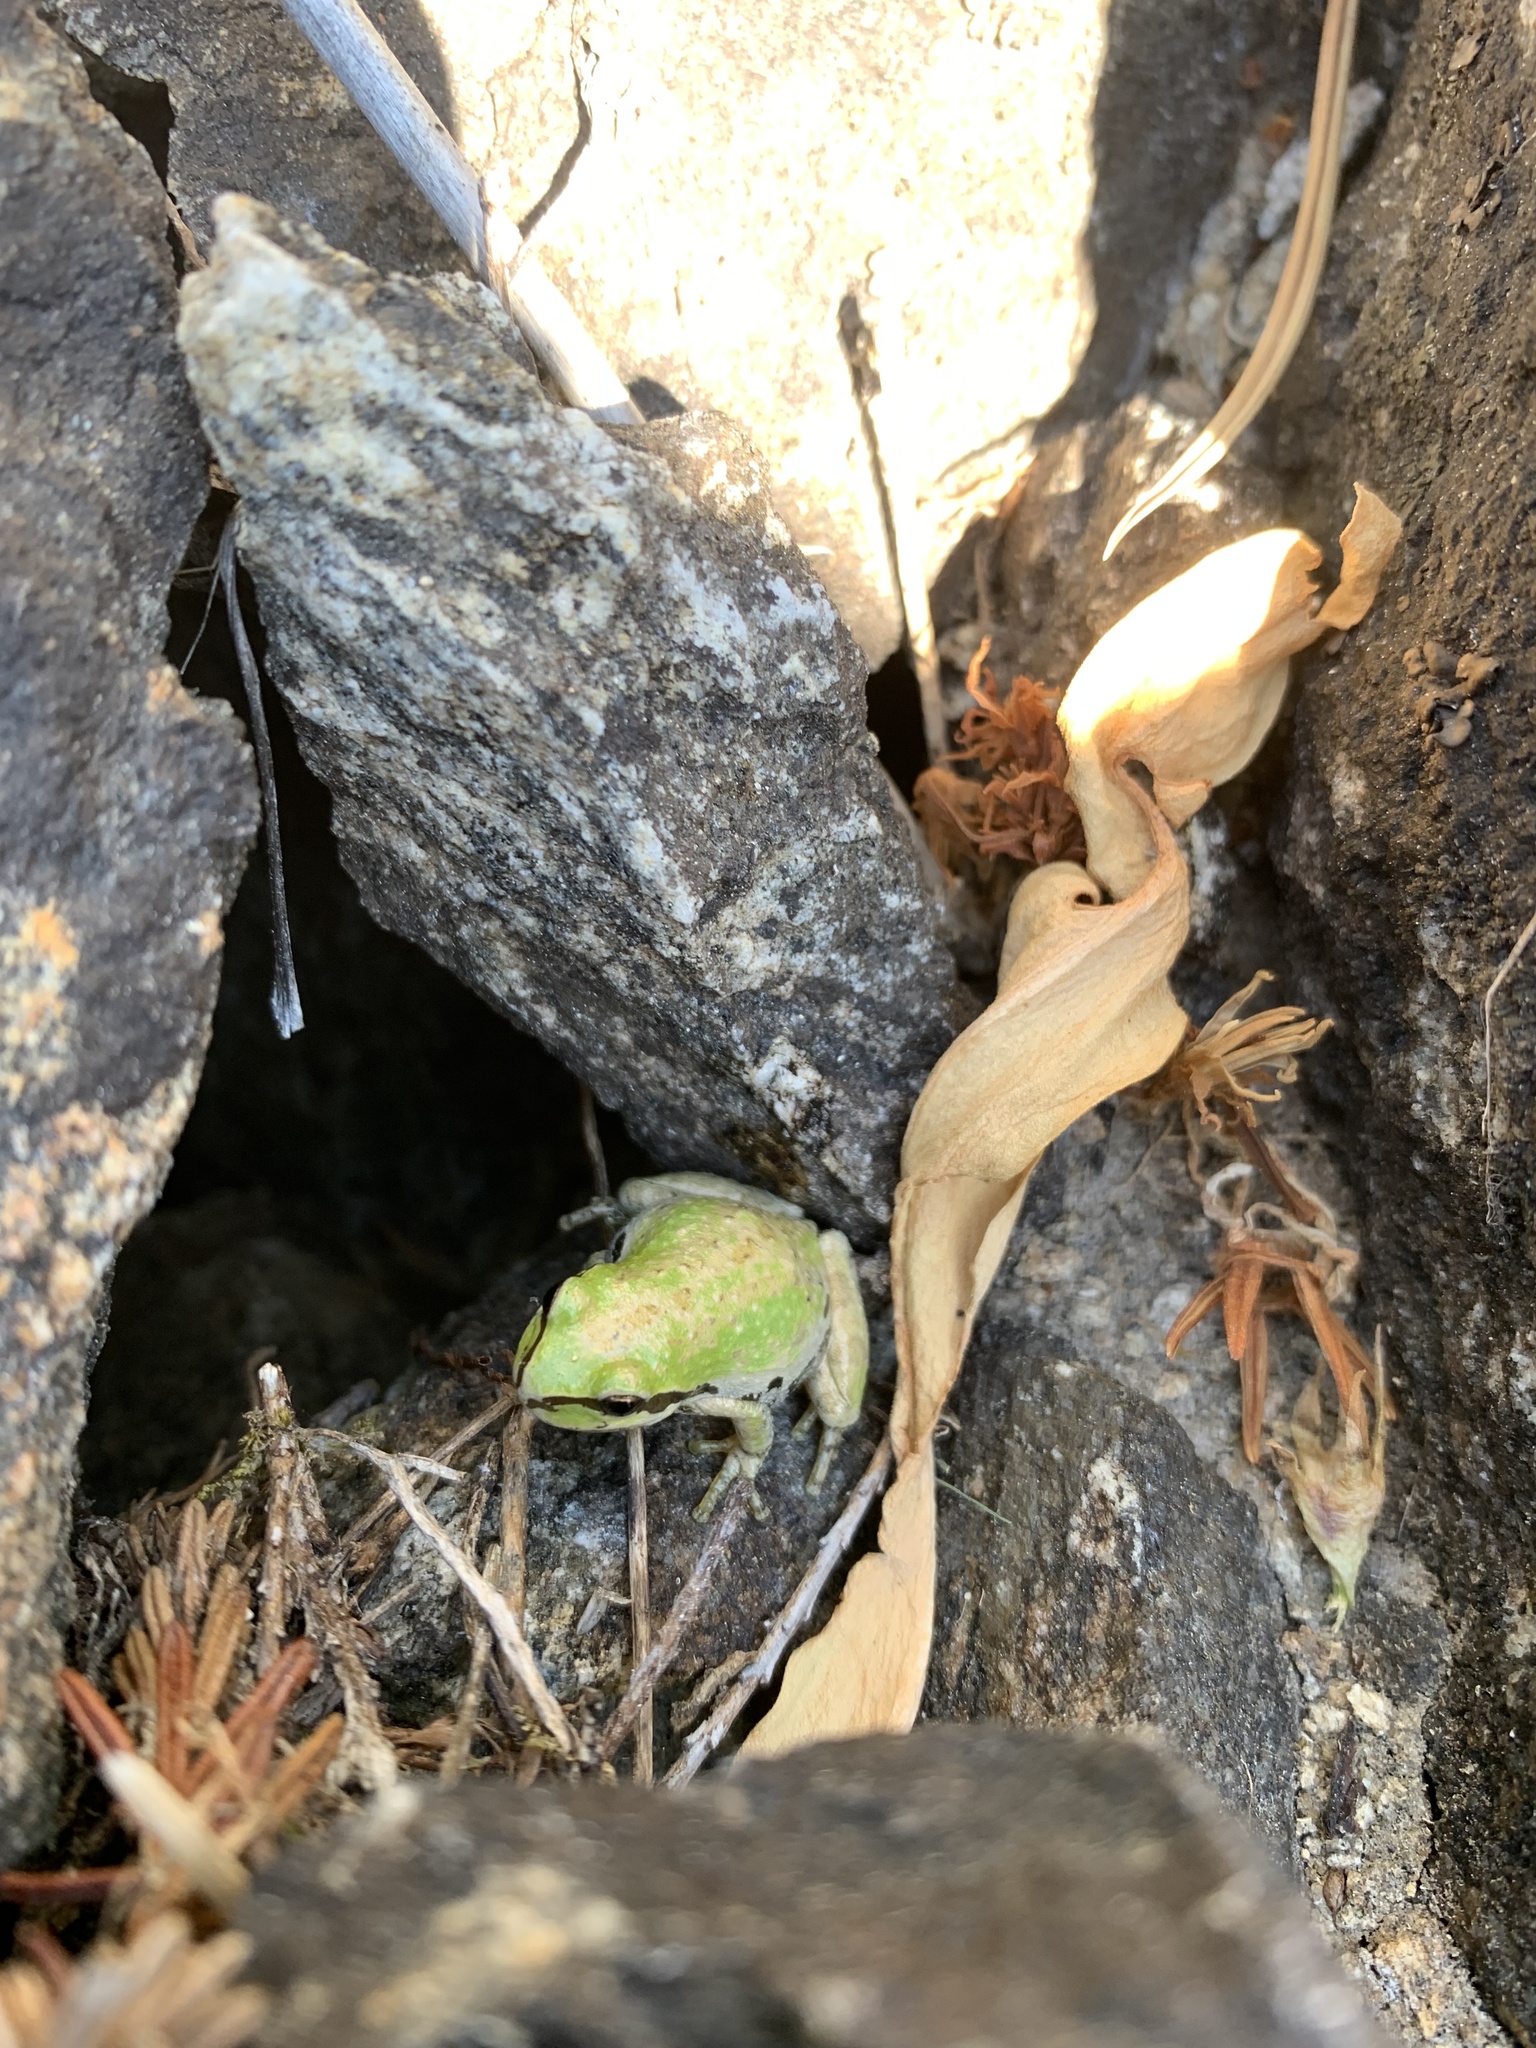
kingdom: Animalia
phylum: Chordata
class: Amphibia
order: Anura
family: Hylidae
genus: Pseudacris
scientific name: Pseudacris regilla
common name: Pacific chorus frog
